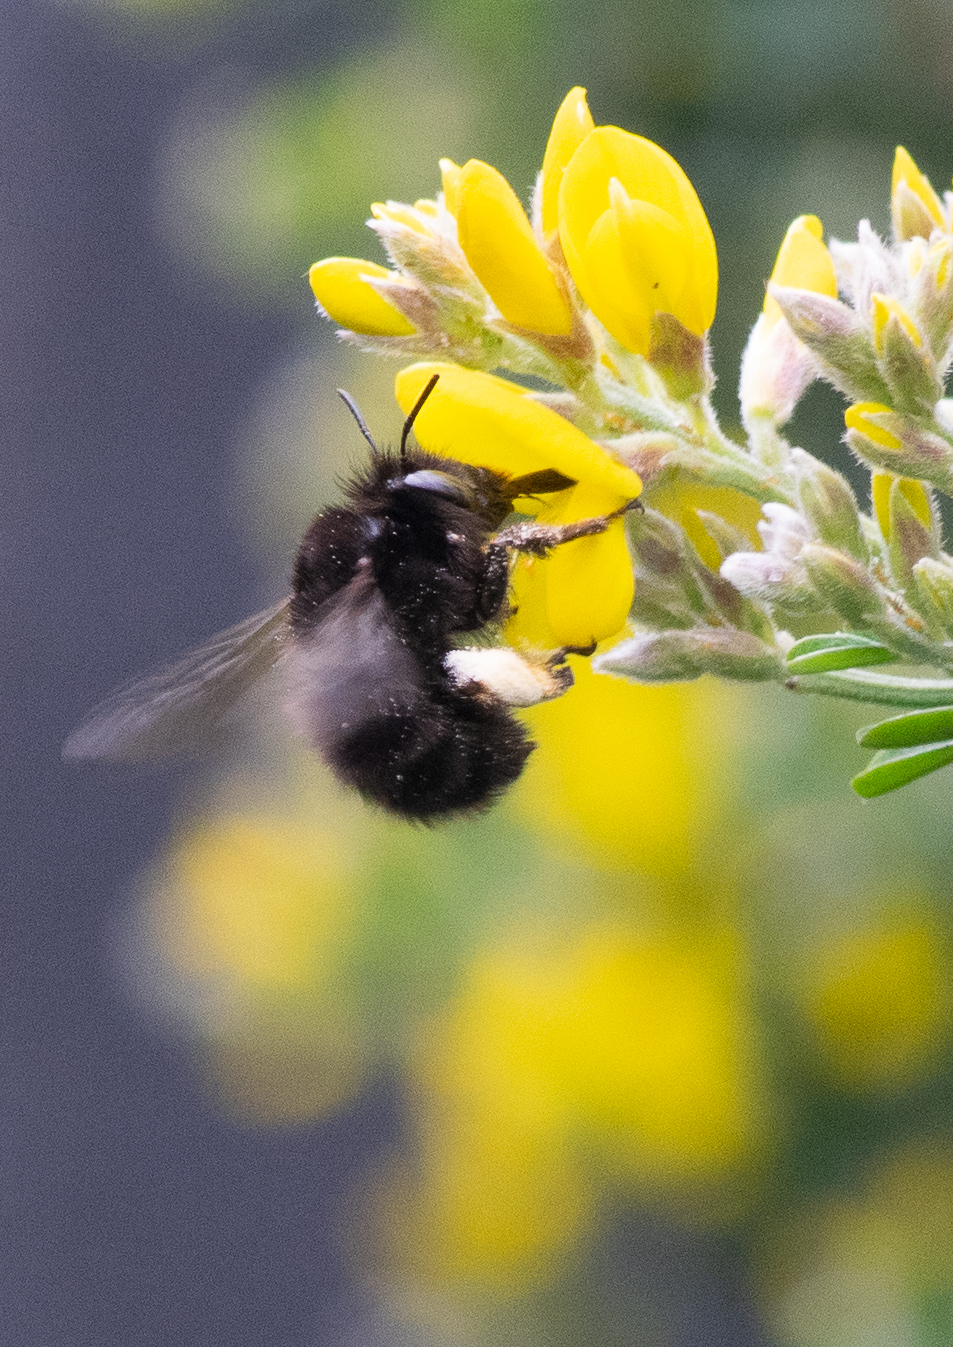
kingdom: Animalia
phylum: Arthropoda
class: Insecta
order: Hymenoptera
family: Apidae
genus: Anthophora
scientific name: Anthophora plumipes
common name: Hairy-footed flower bee
